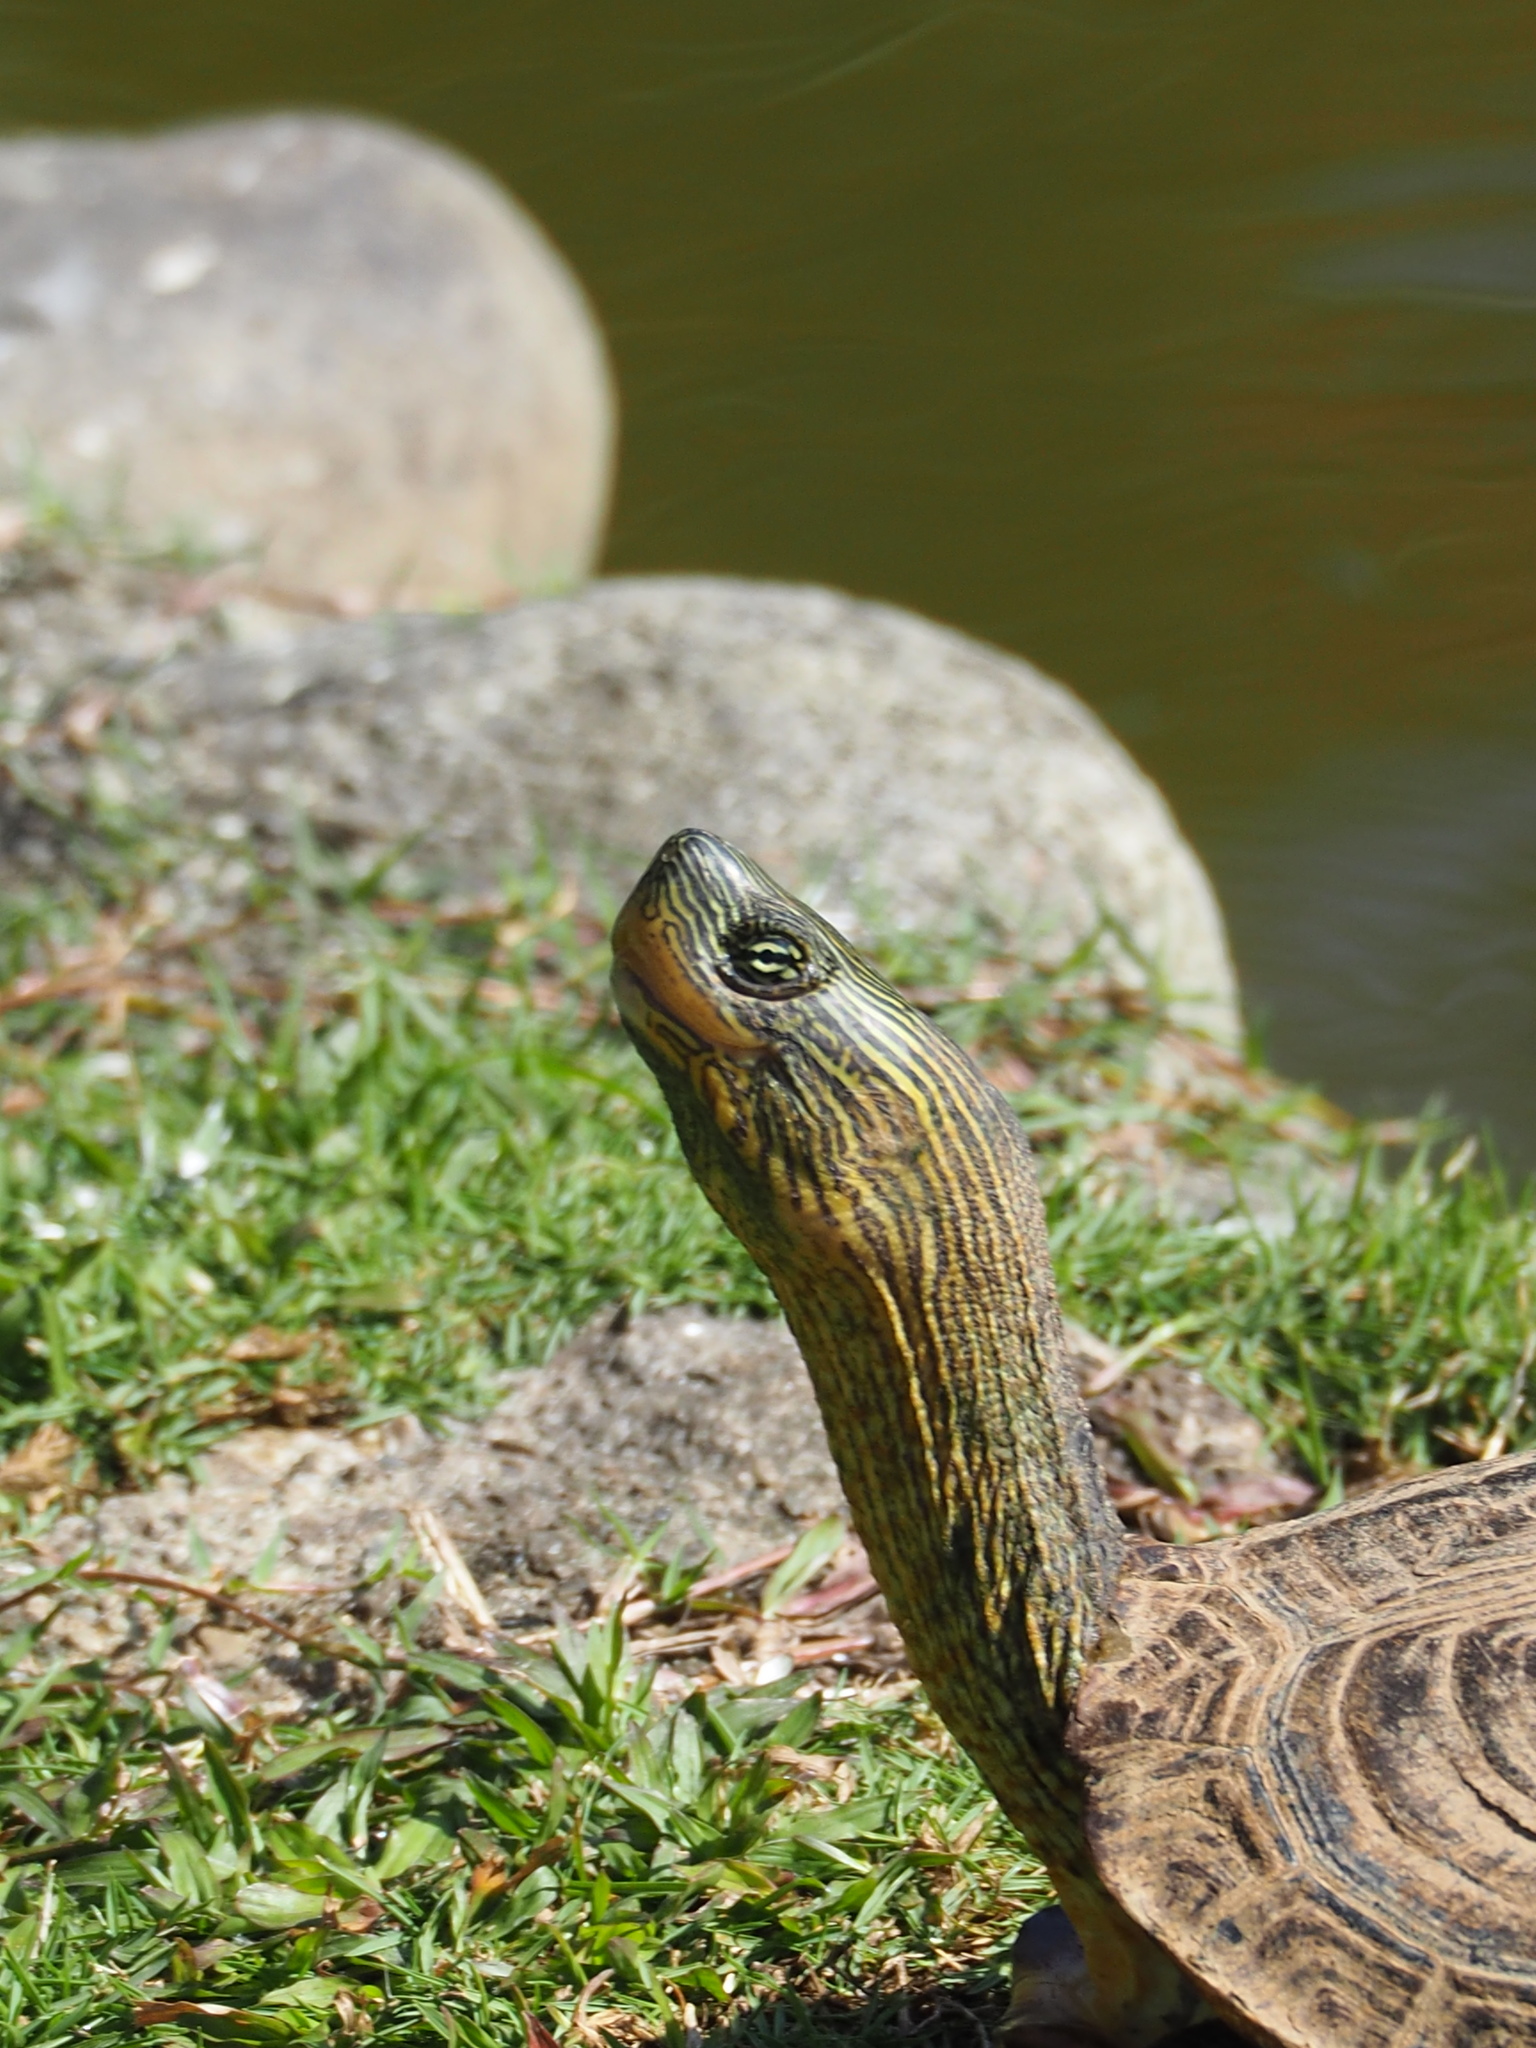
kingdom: Animalia
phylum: Chordata
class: Testudines
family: Geoemydidae
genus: Mauremys
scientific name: Mauremys sinensis
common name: Chinese stripe-necked turtle
